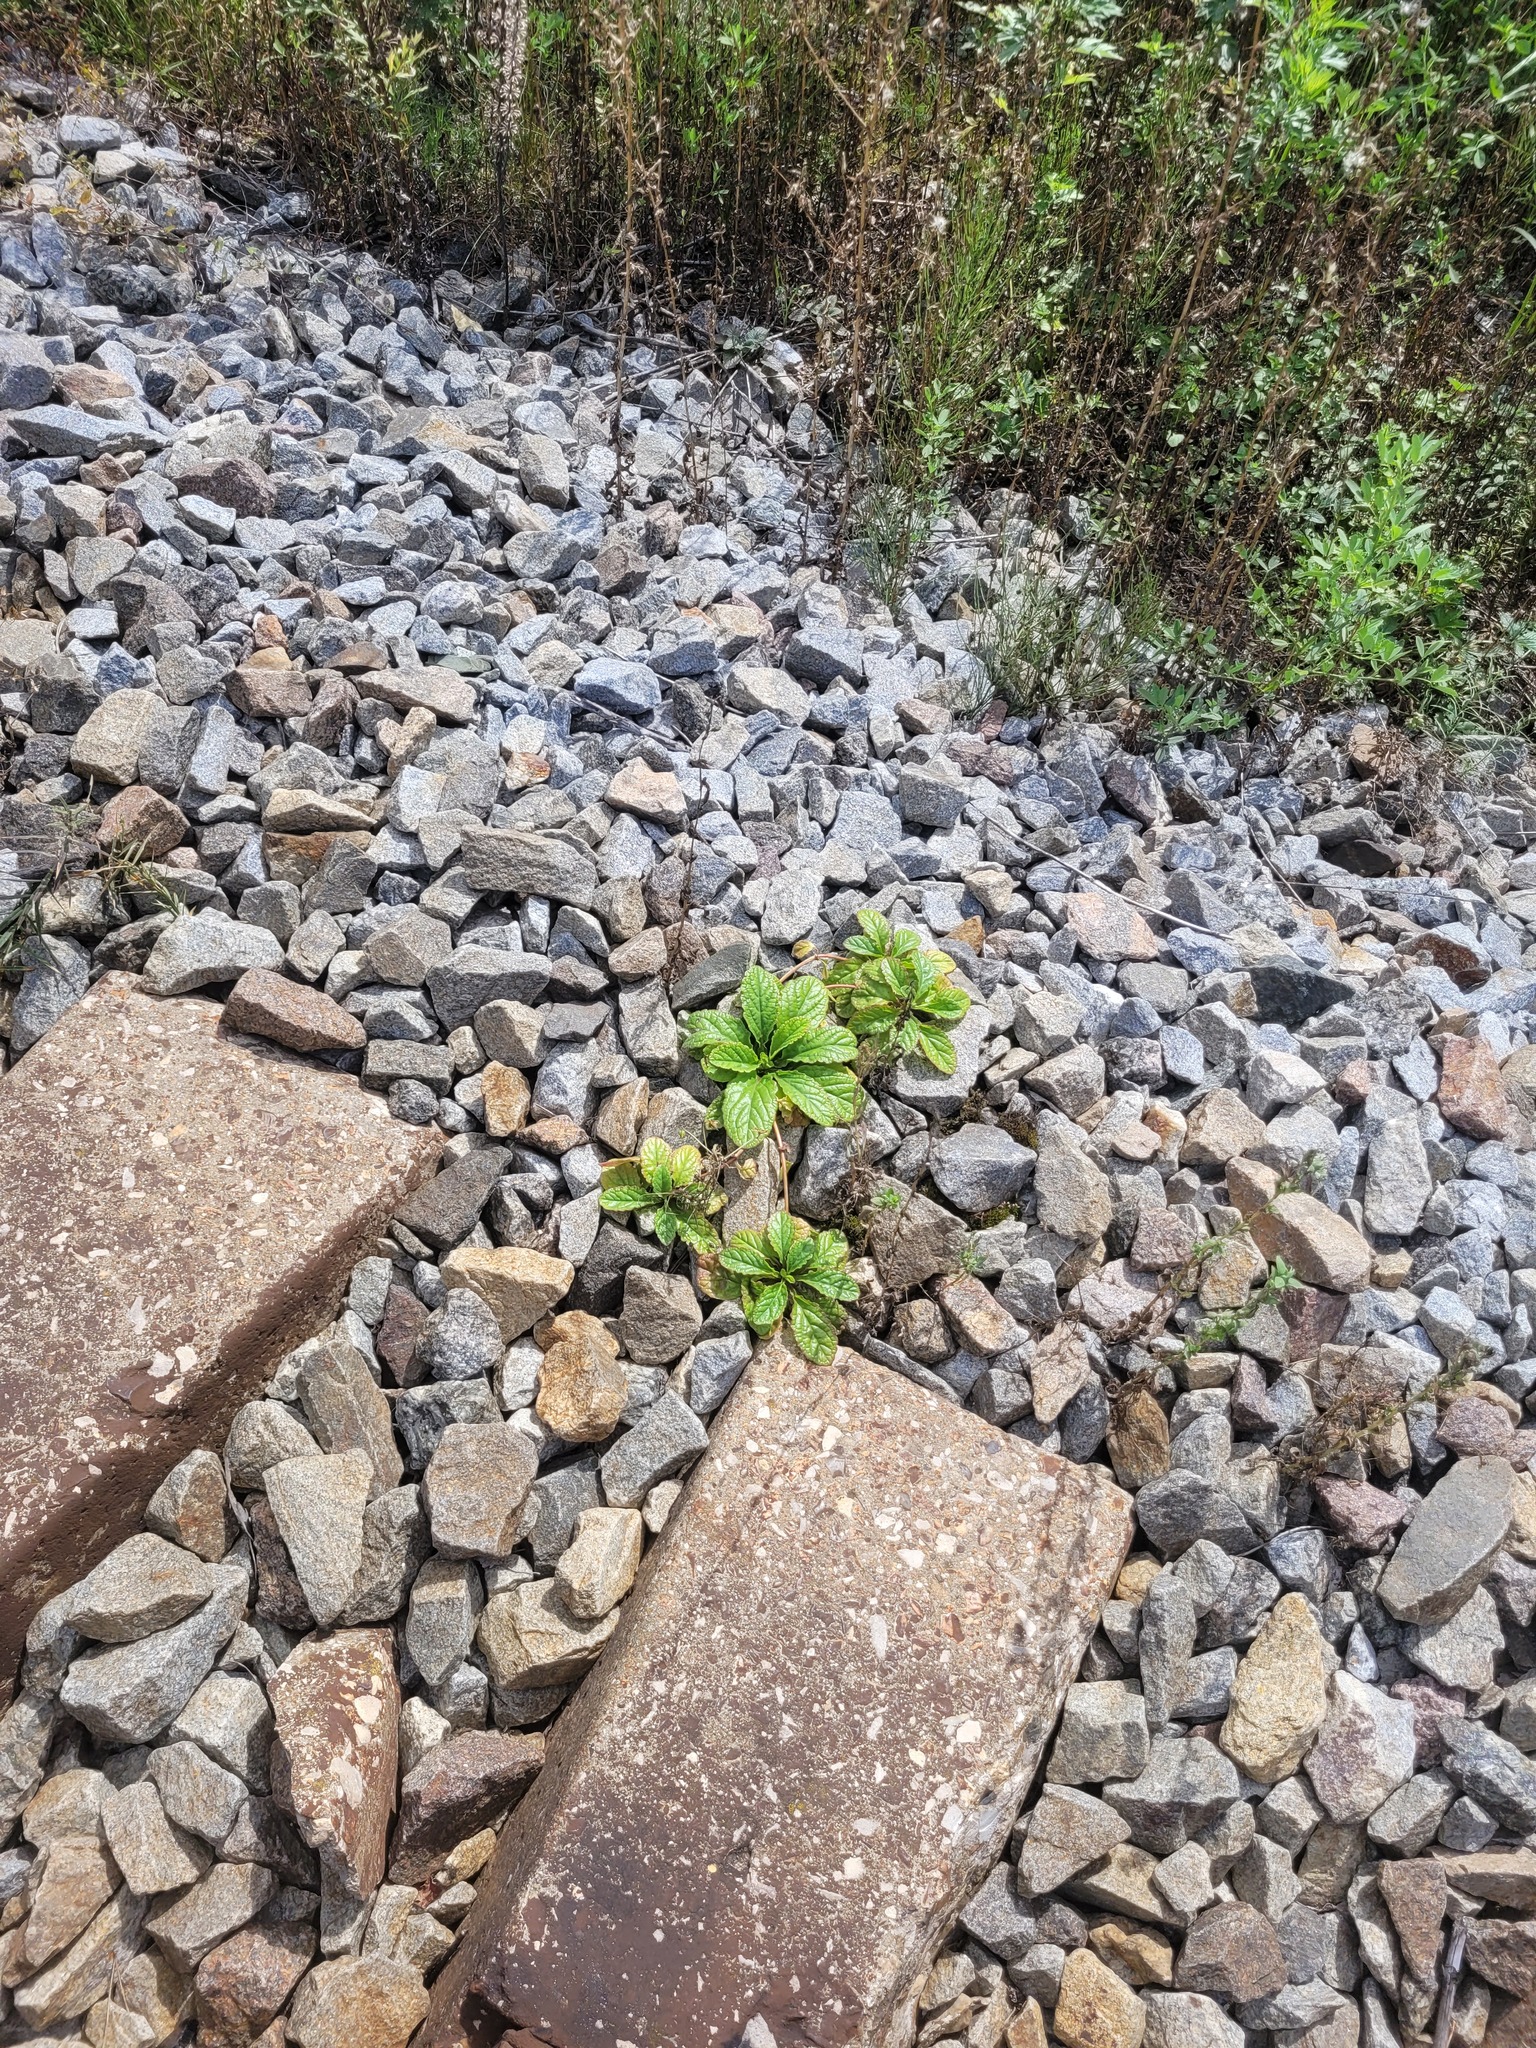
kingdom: Plantae
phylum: Tracheophyta
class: Magnoliopsida
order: Lamiales
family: Lamiaceae
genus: Ajuga
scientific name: Ajuga reptans
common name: Bugle
